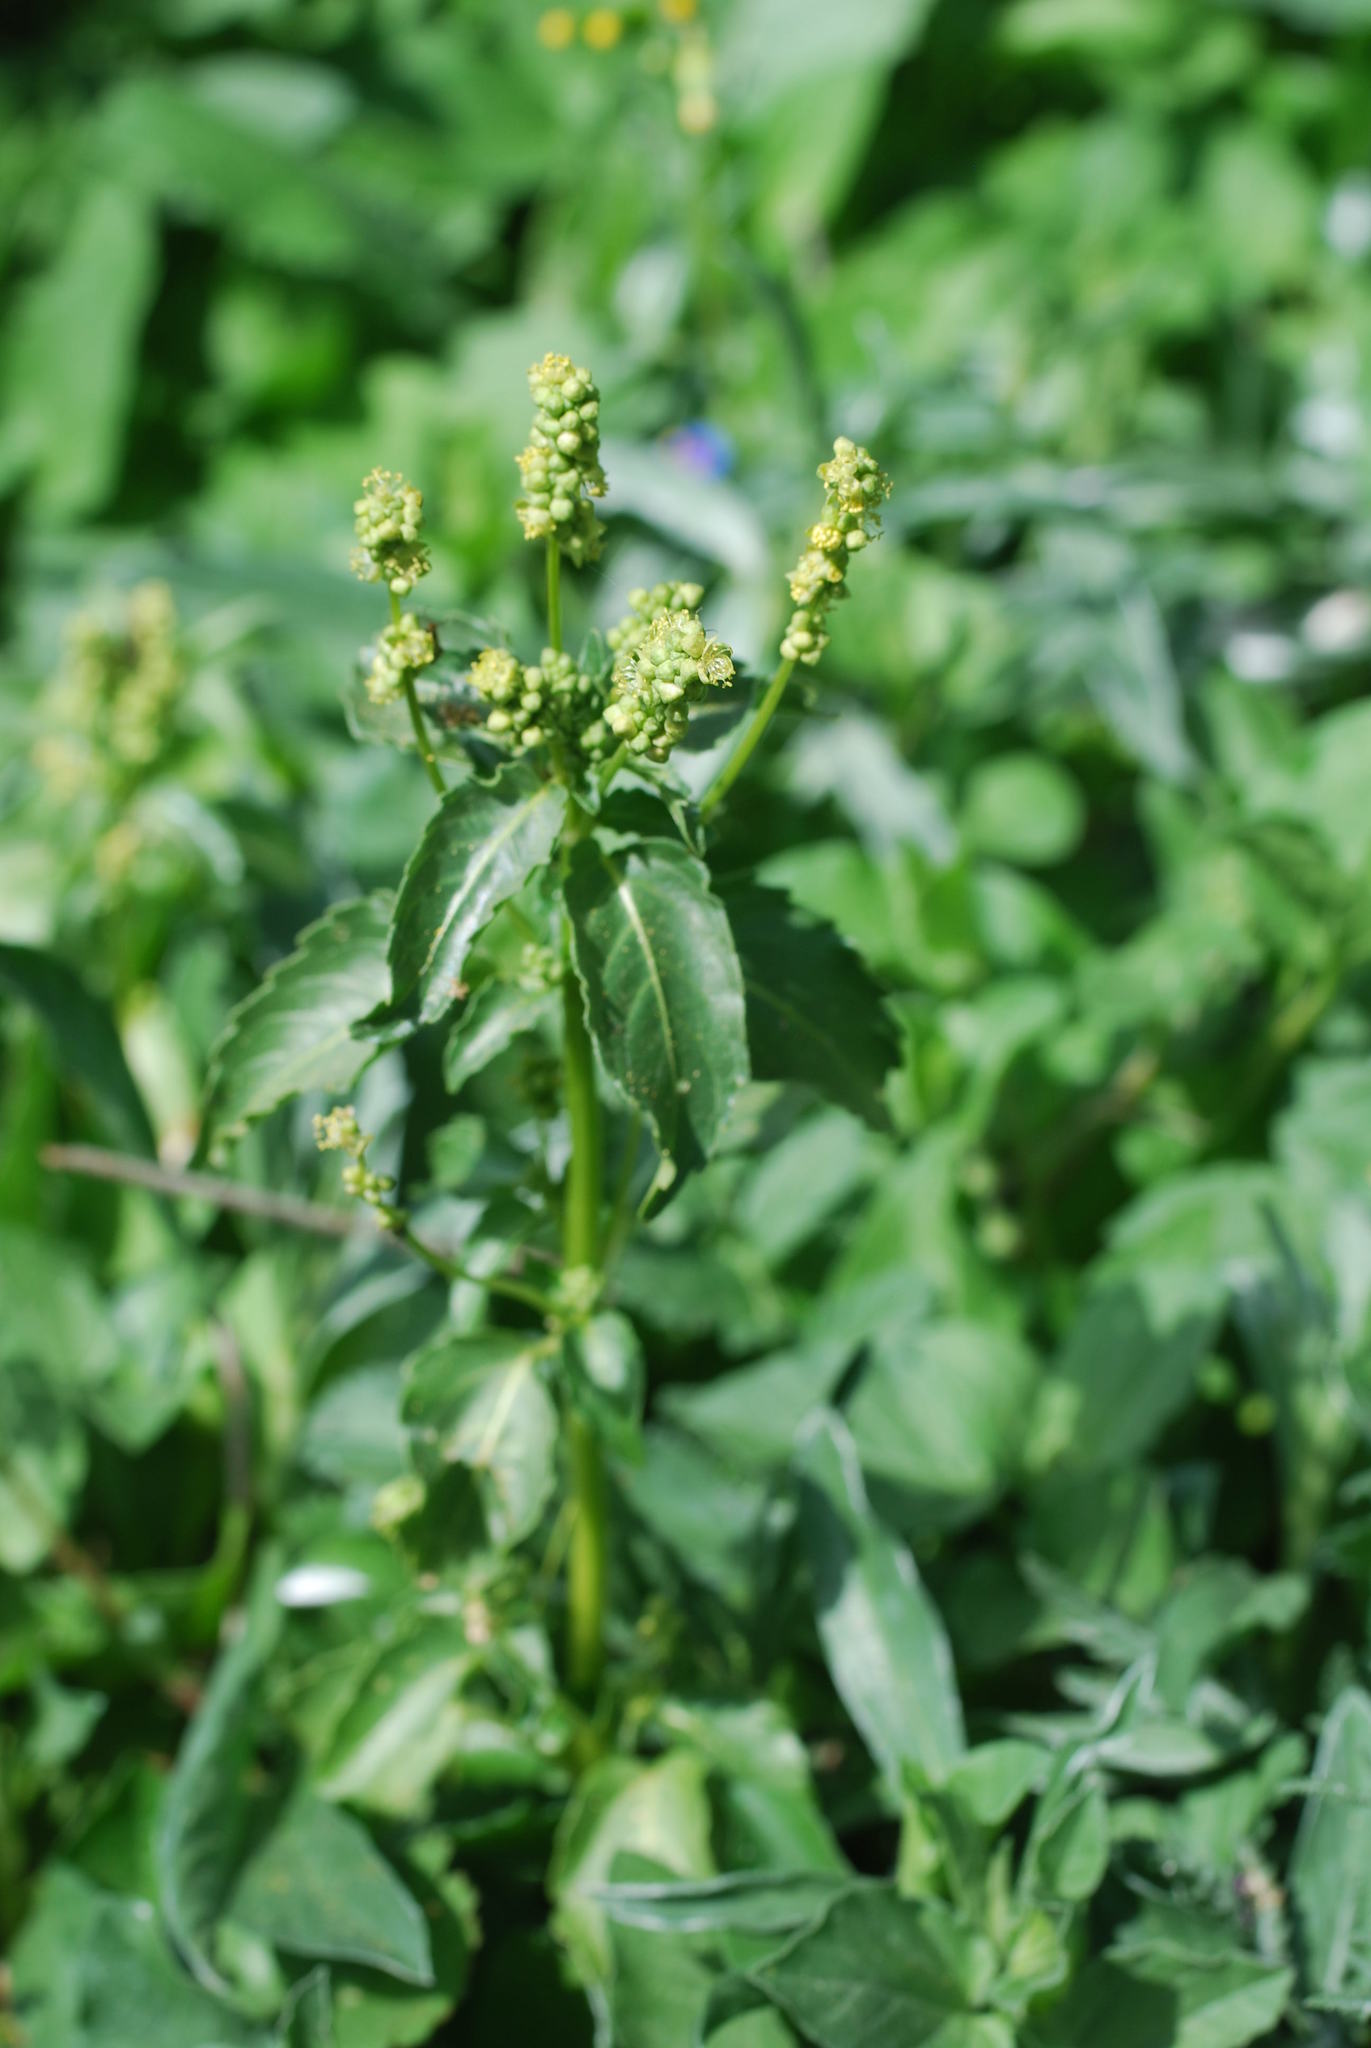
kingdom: Plantae
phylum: Tracheophyta
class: Magnoliopsida
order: Malpighiales
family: Euphorbiaceae
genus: Mercurialis
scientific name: Mercurialis annua
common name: Annual mercury
